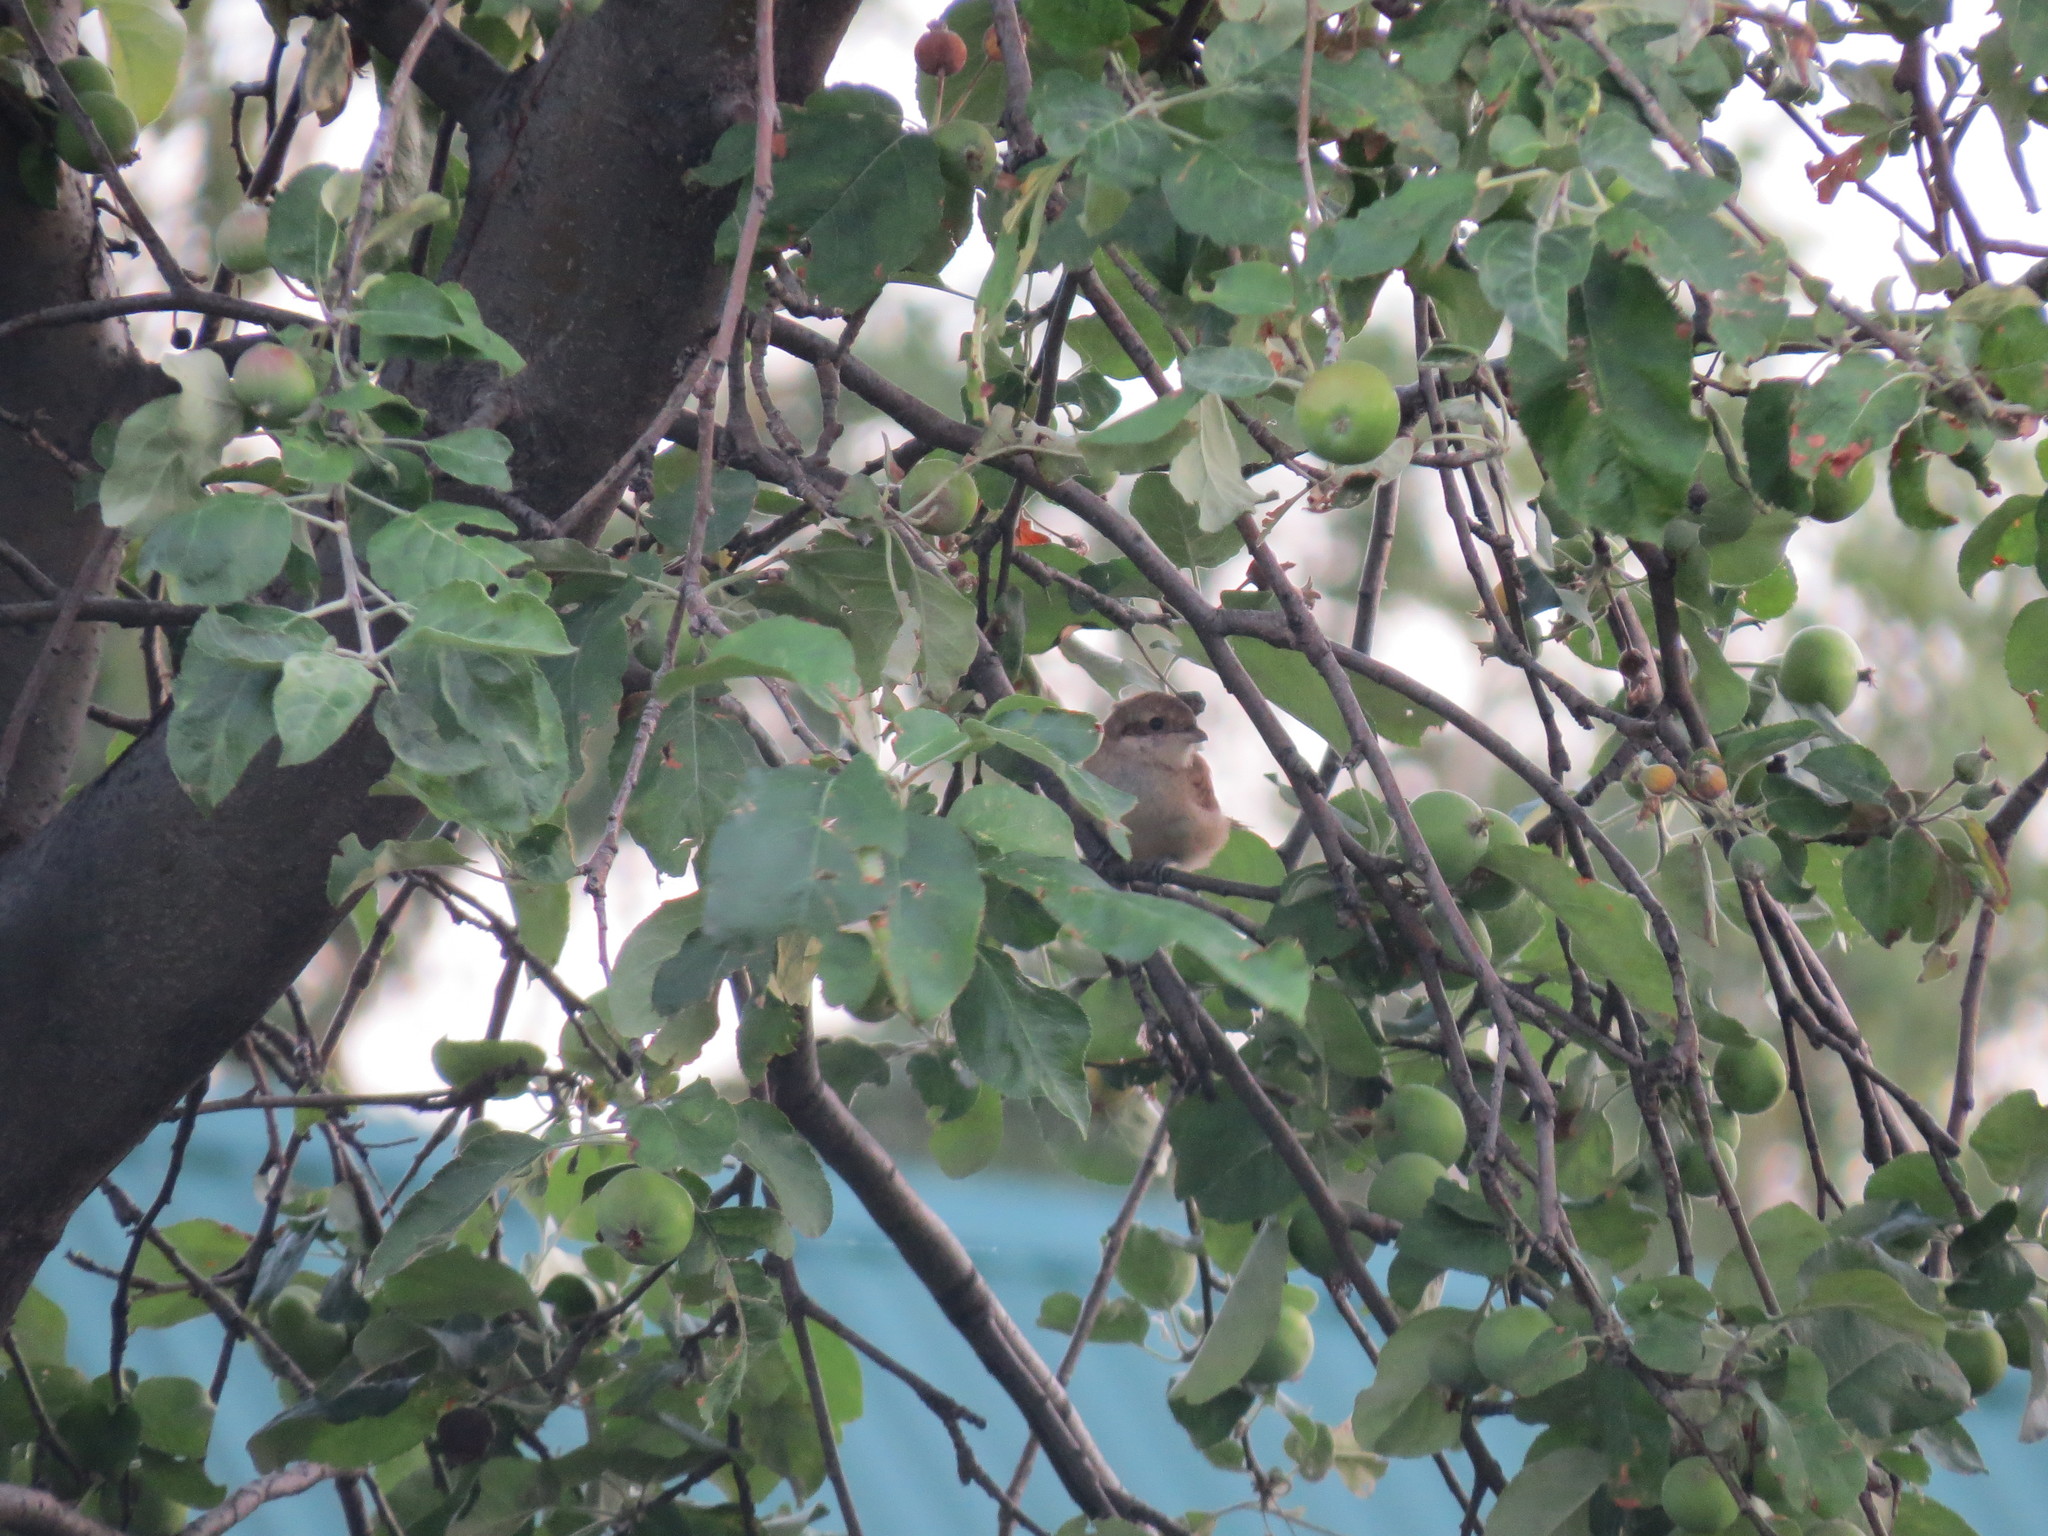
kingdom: Animalia
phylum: Chordata
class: Aves
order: Passeriformes
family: Laniidae
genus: Lanius
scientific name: Lanius collurio
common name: Red-backed shrike
